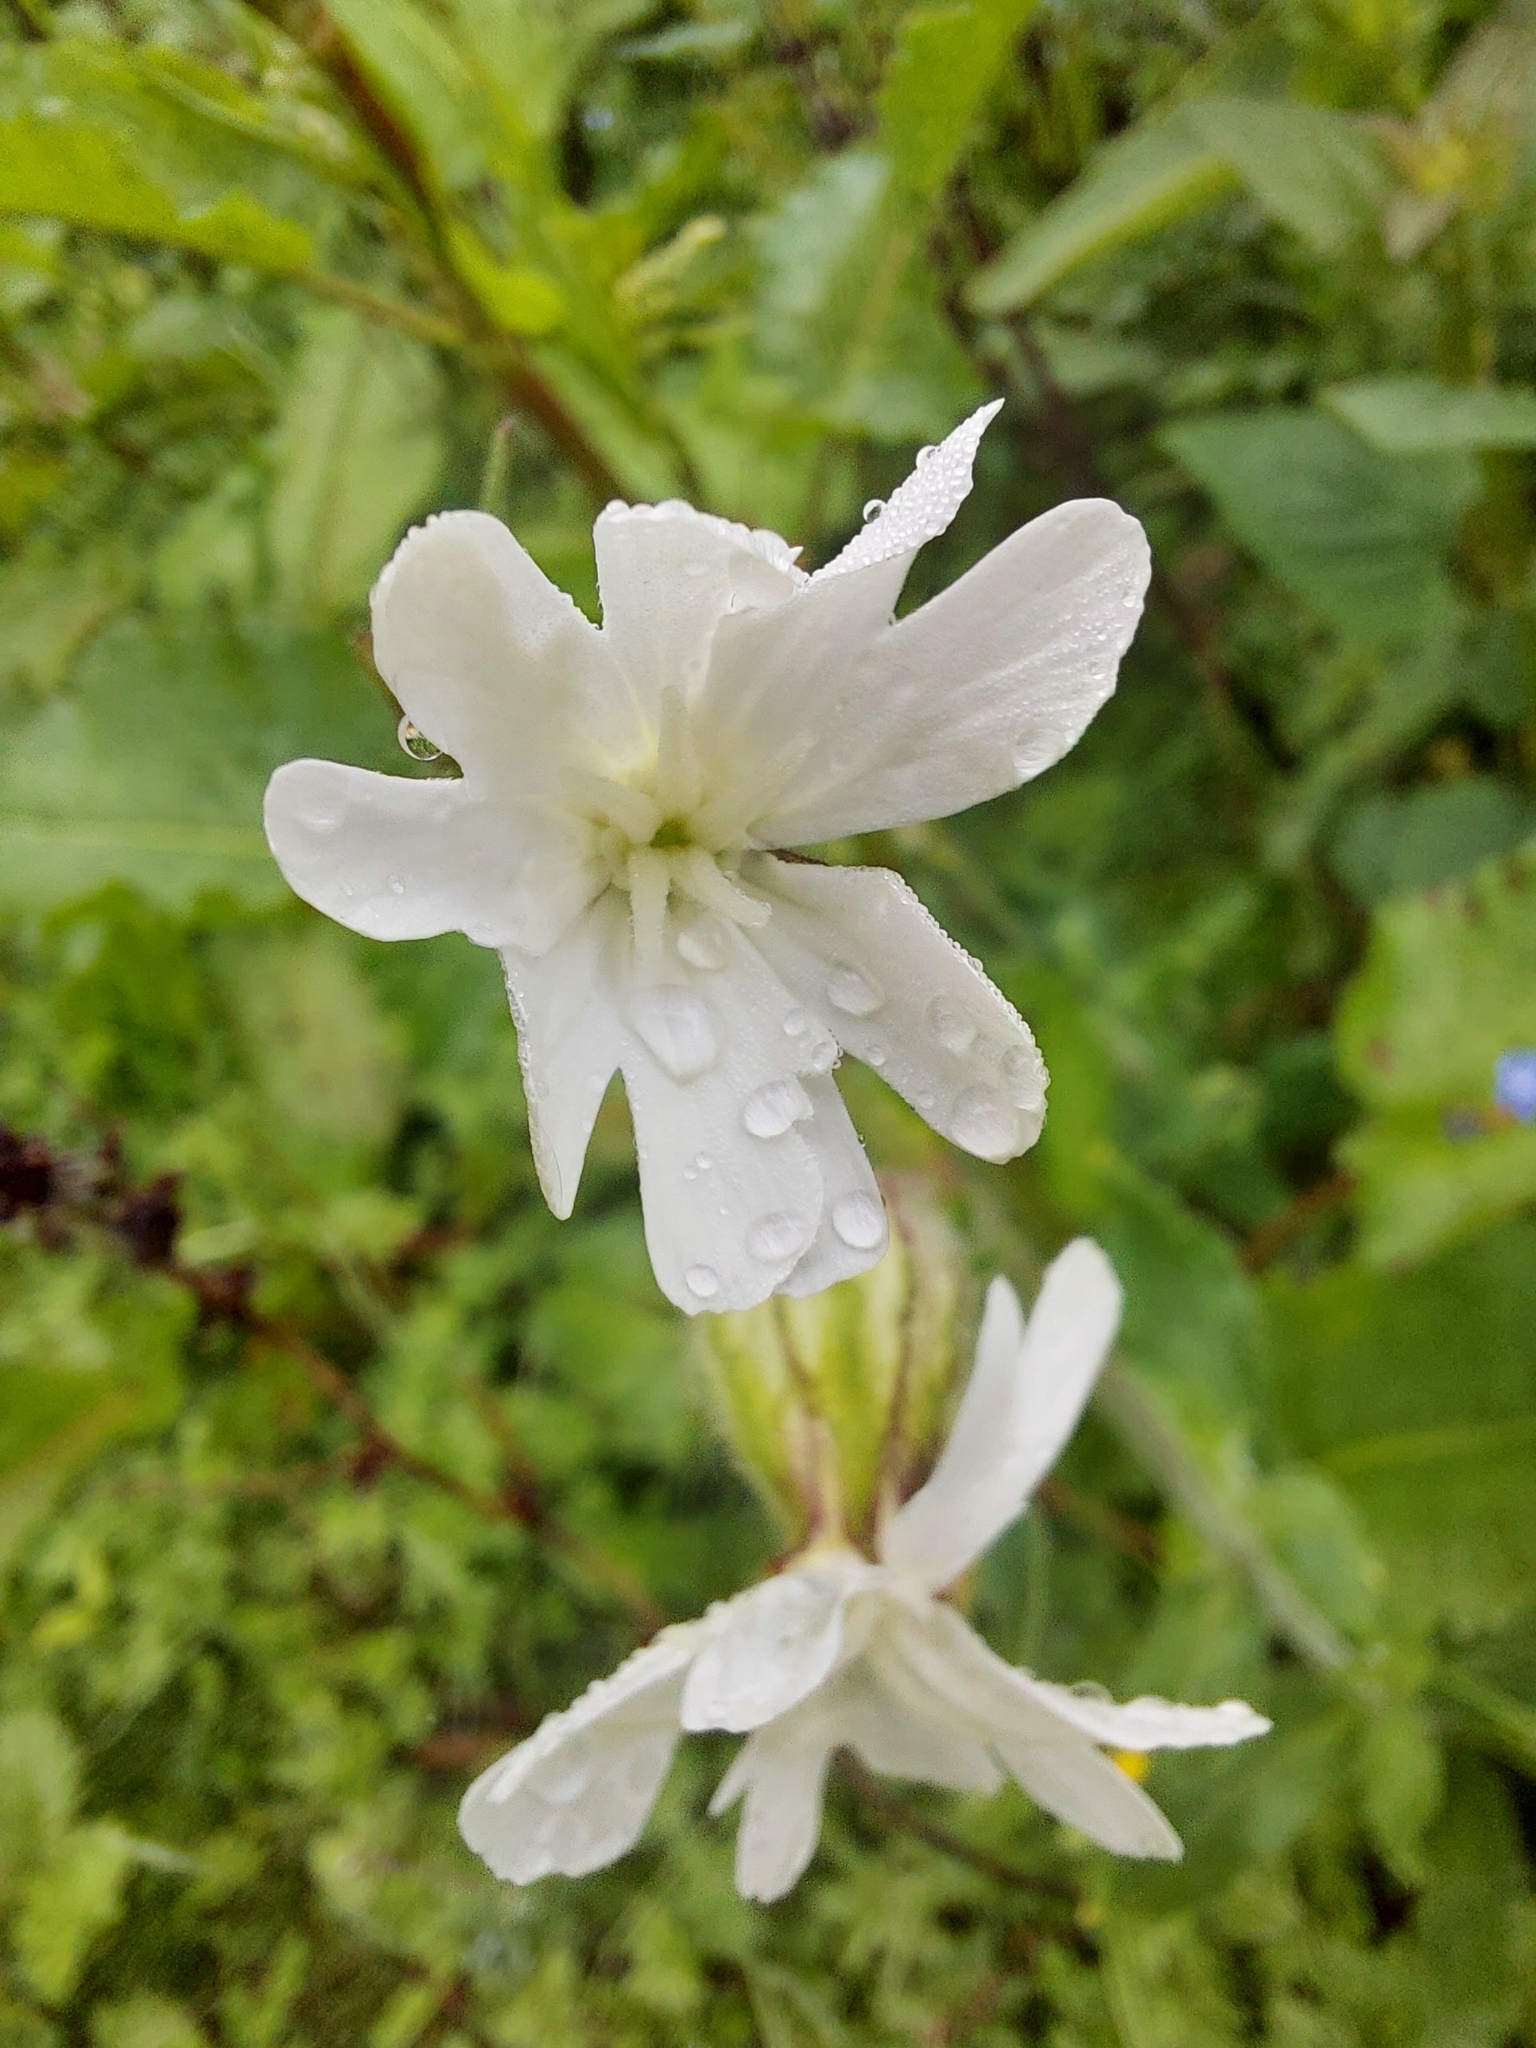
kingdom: Plantae
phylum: Tracheophyta
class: Magnoliopsida
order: Caryophyllales
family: Caryophyllaceae
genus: Silene
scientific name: Silene latifolia
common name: White campion
